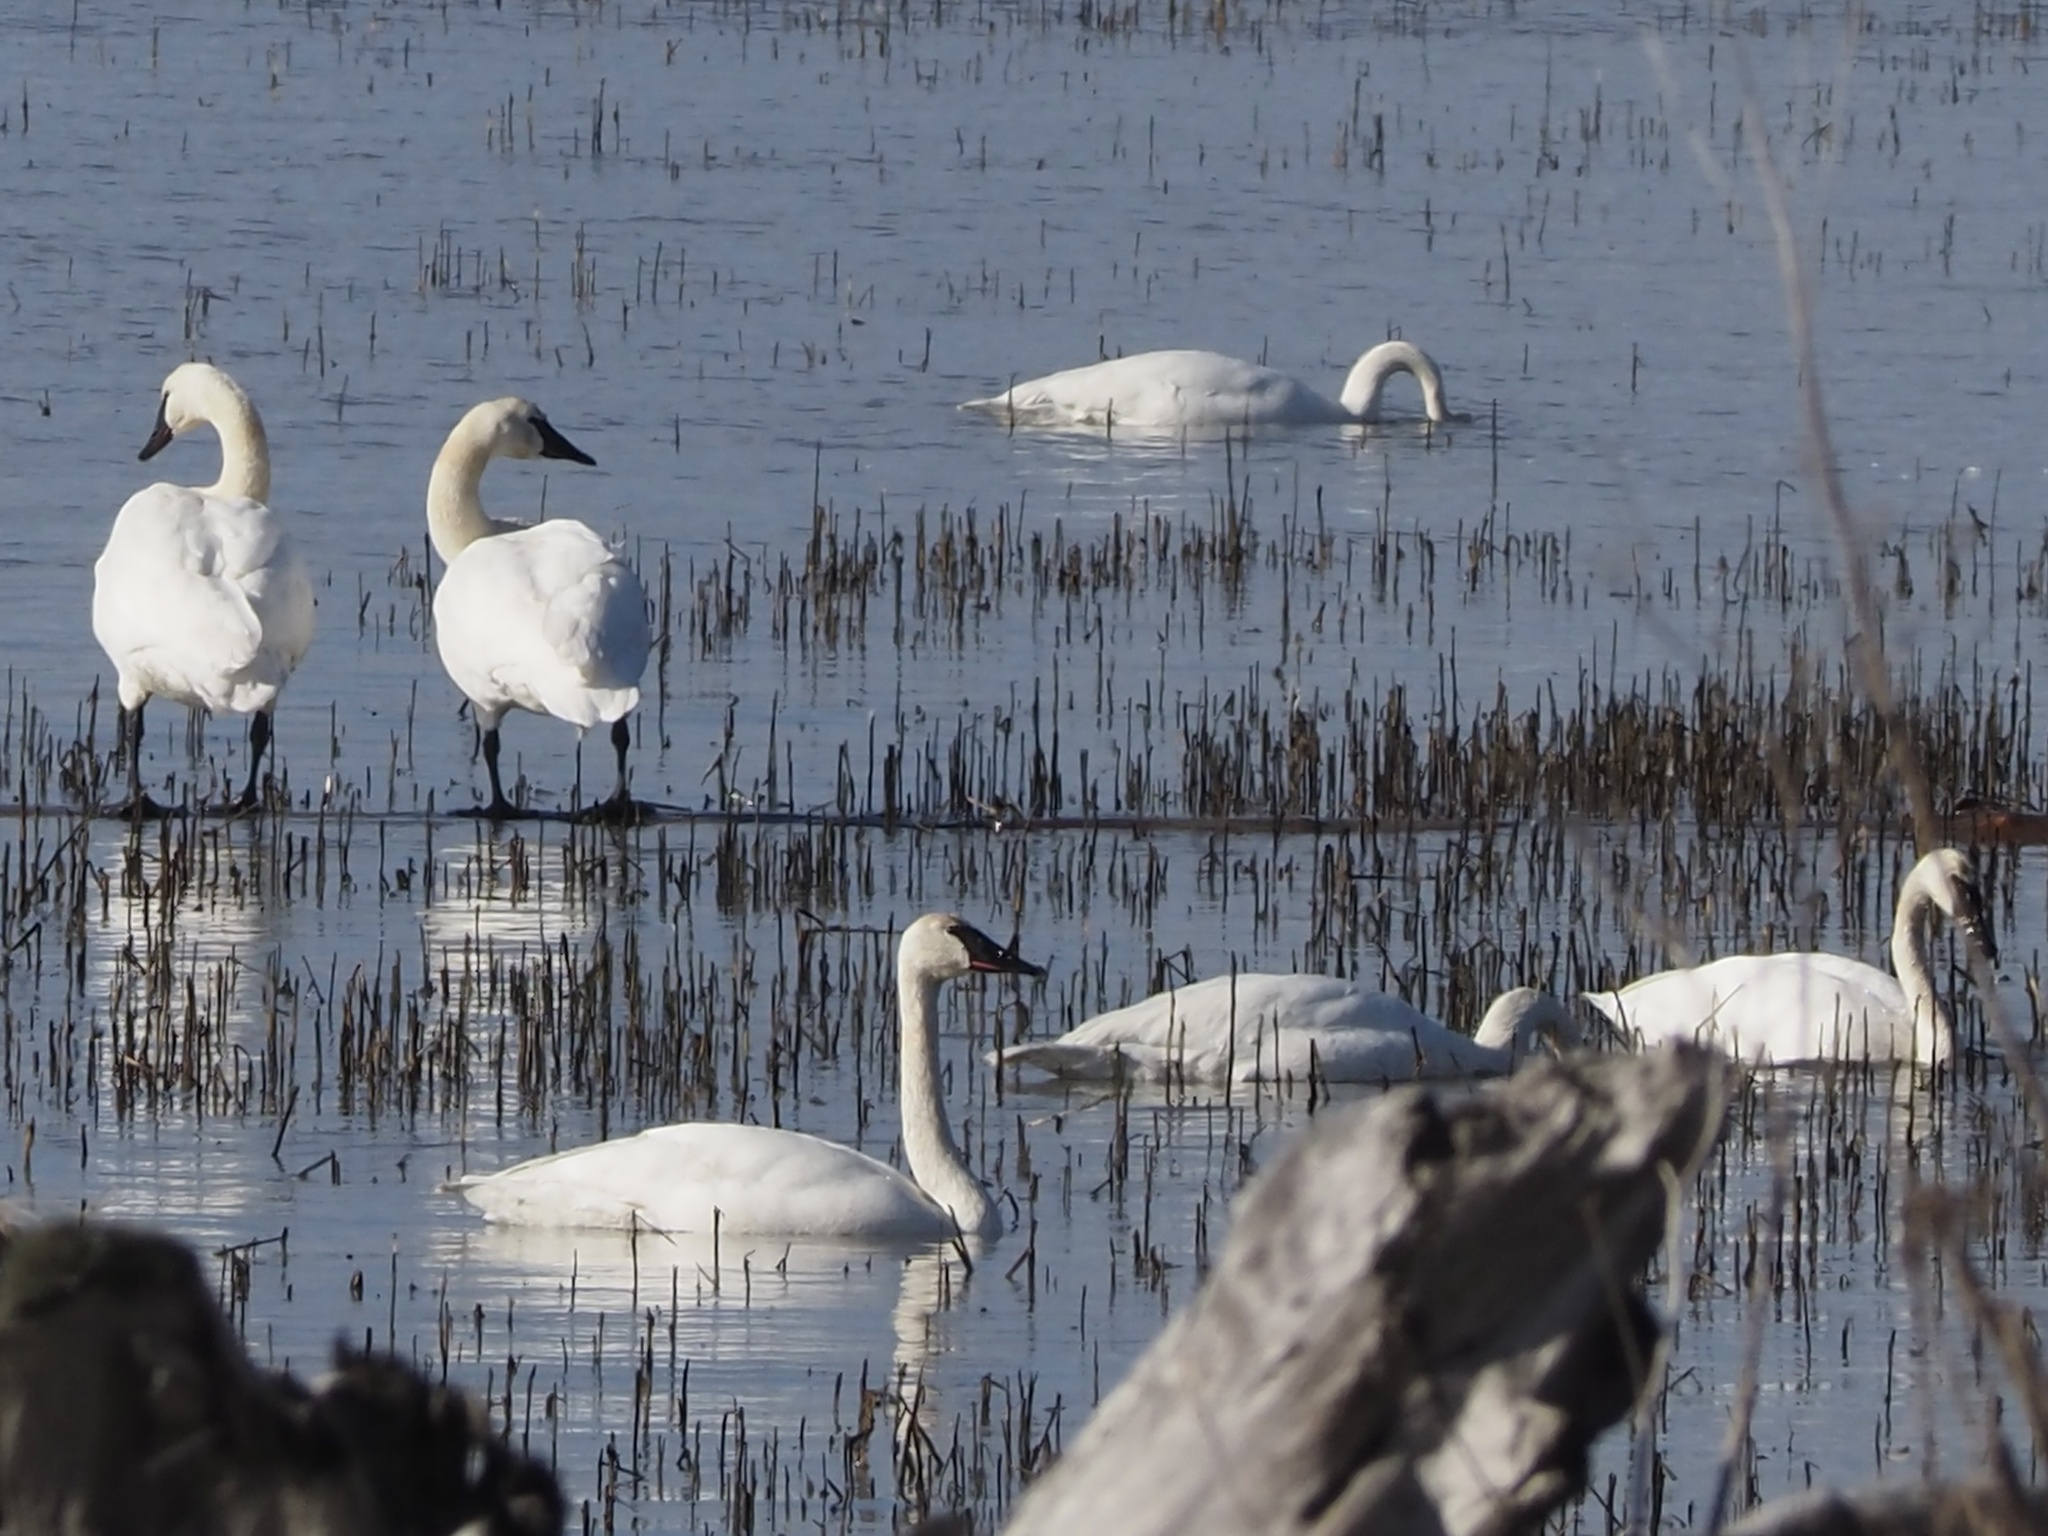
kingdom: Animalia
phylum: Chordata
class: Aves
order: Anseriformes
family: Anatidae
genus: Cygnus
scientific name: Cygnus buccinator
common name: Trumpeter swan
